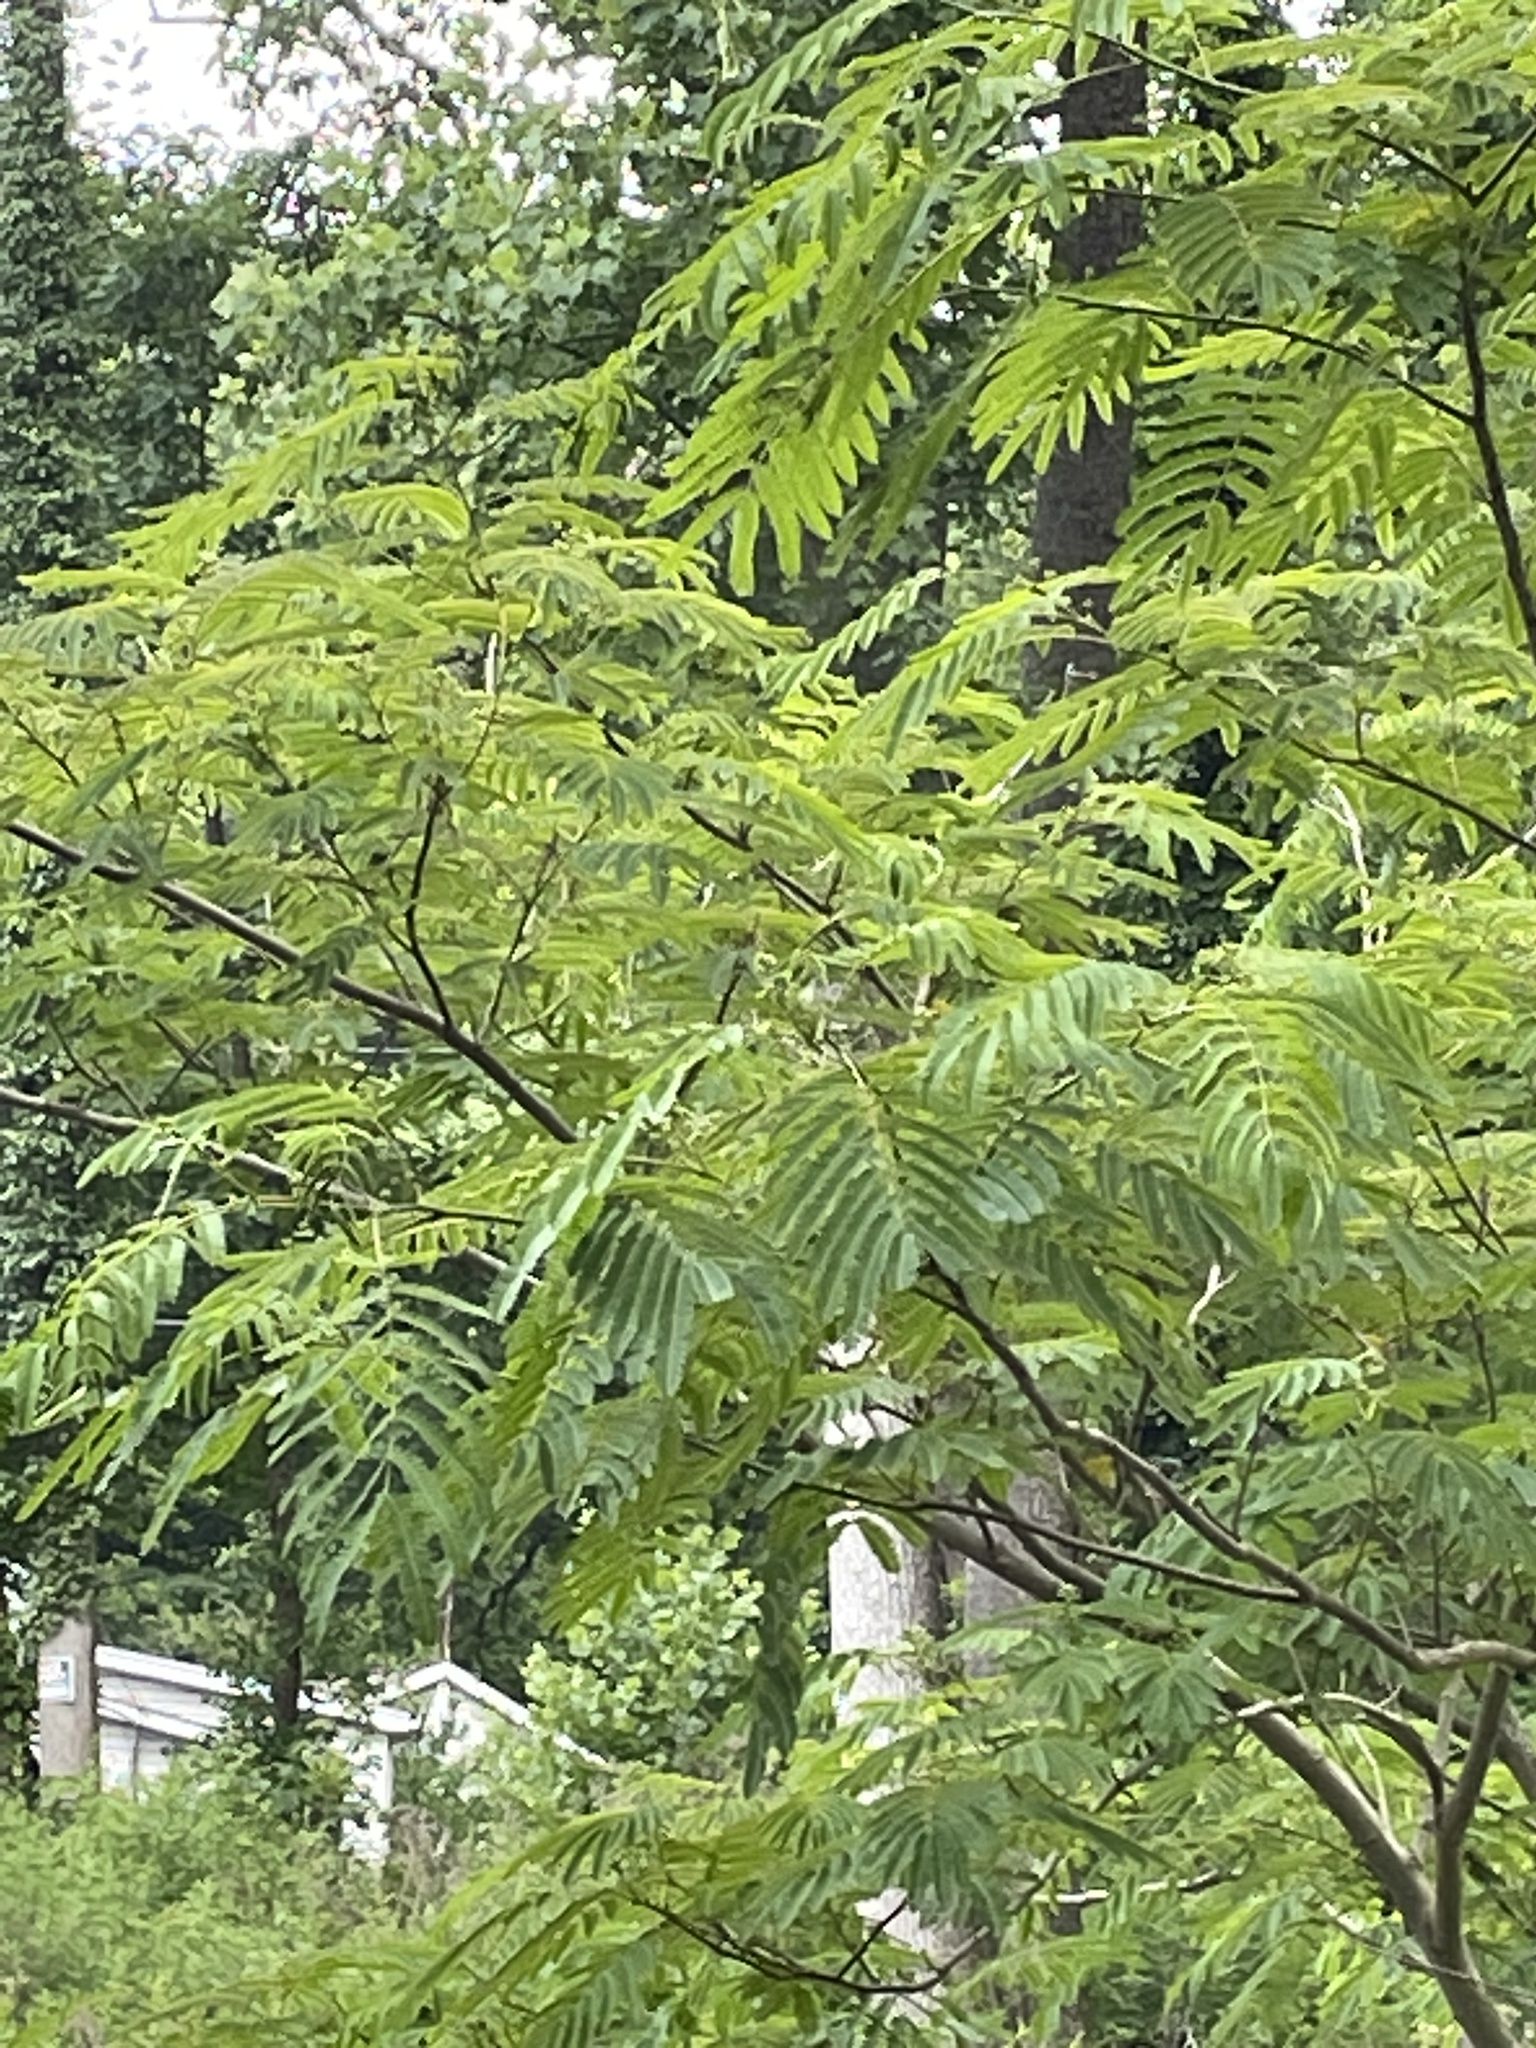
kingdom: Plantae
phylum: Tracheophyta
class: Magnoliopsida
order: Fabales
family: Fabaceae
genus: Albizia
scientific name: Albizia julibrissin
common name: Silktree
